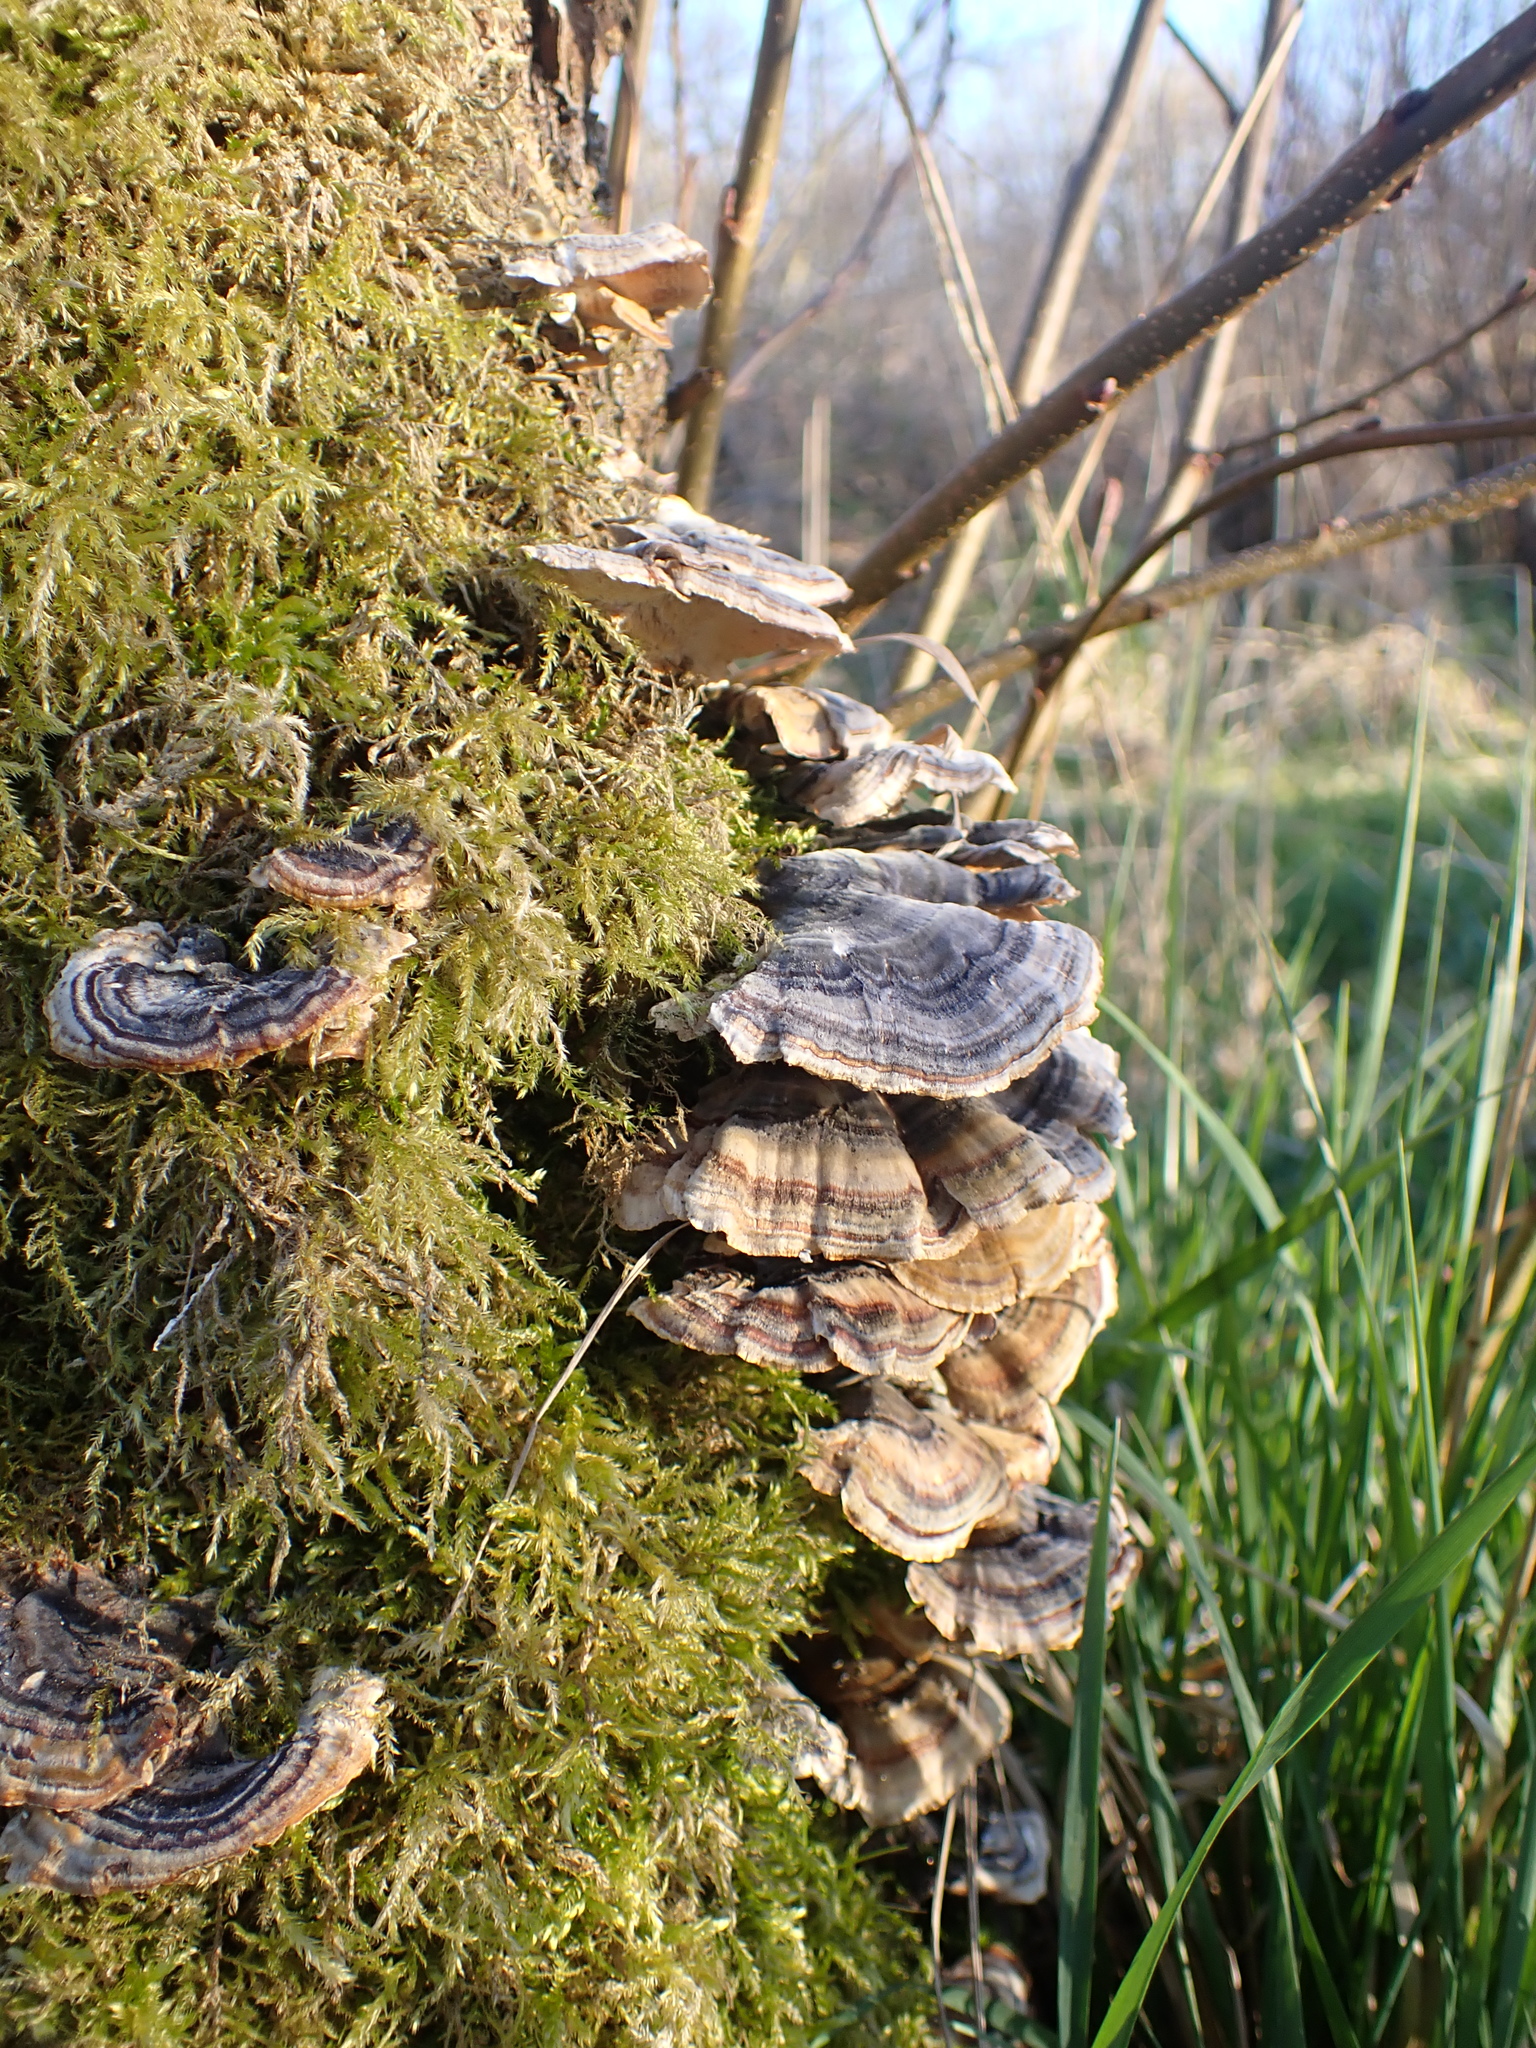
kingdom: Fungi
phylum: Basidiomycota
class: Agaricomycetes
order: Polyporales
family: Polyporaceae
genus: Trametes
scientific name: Trametes versicolor
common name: Turkeytail
